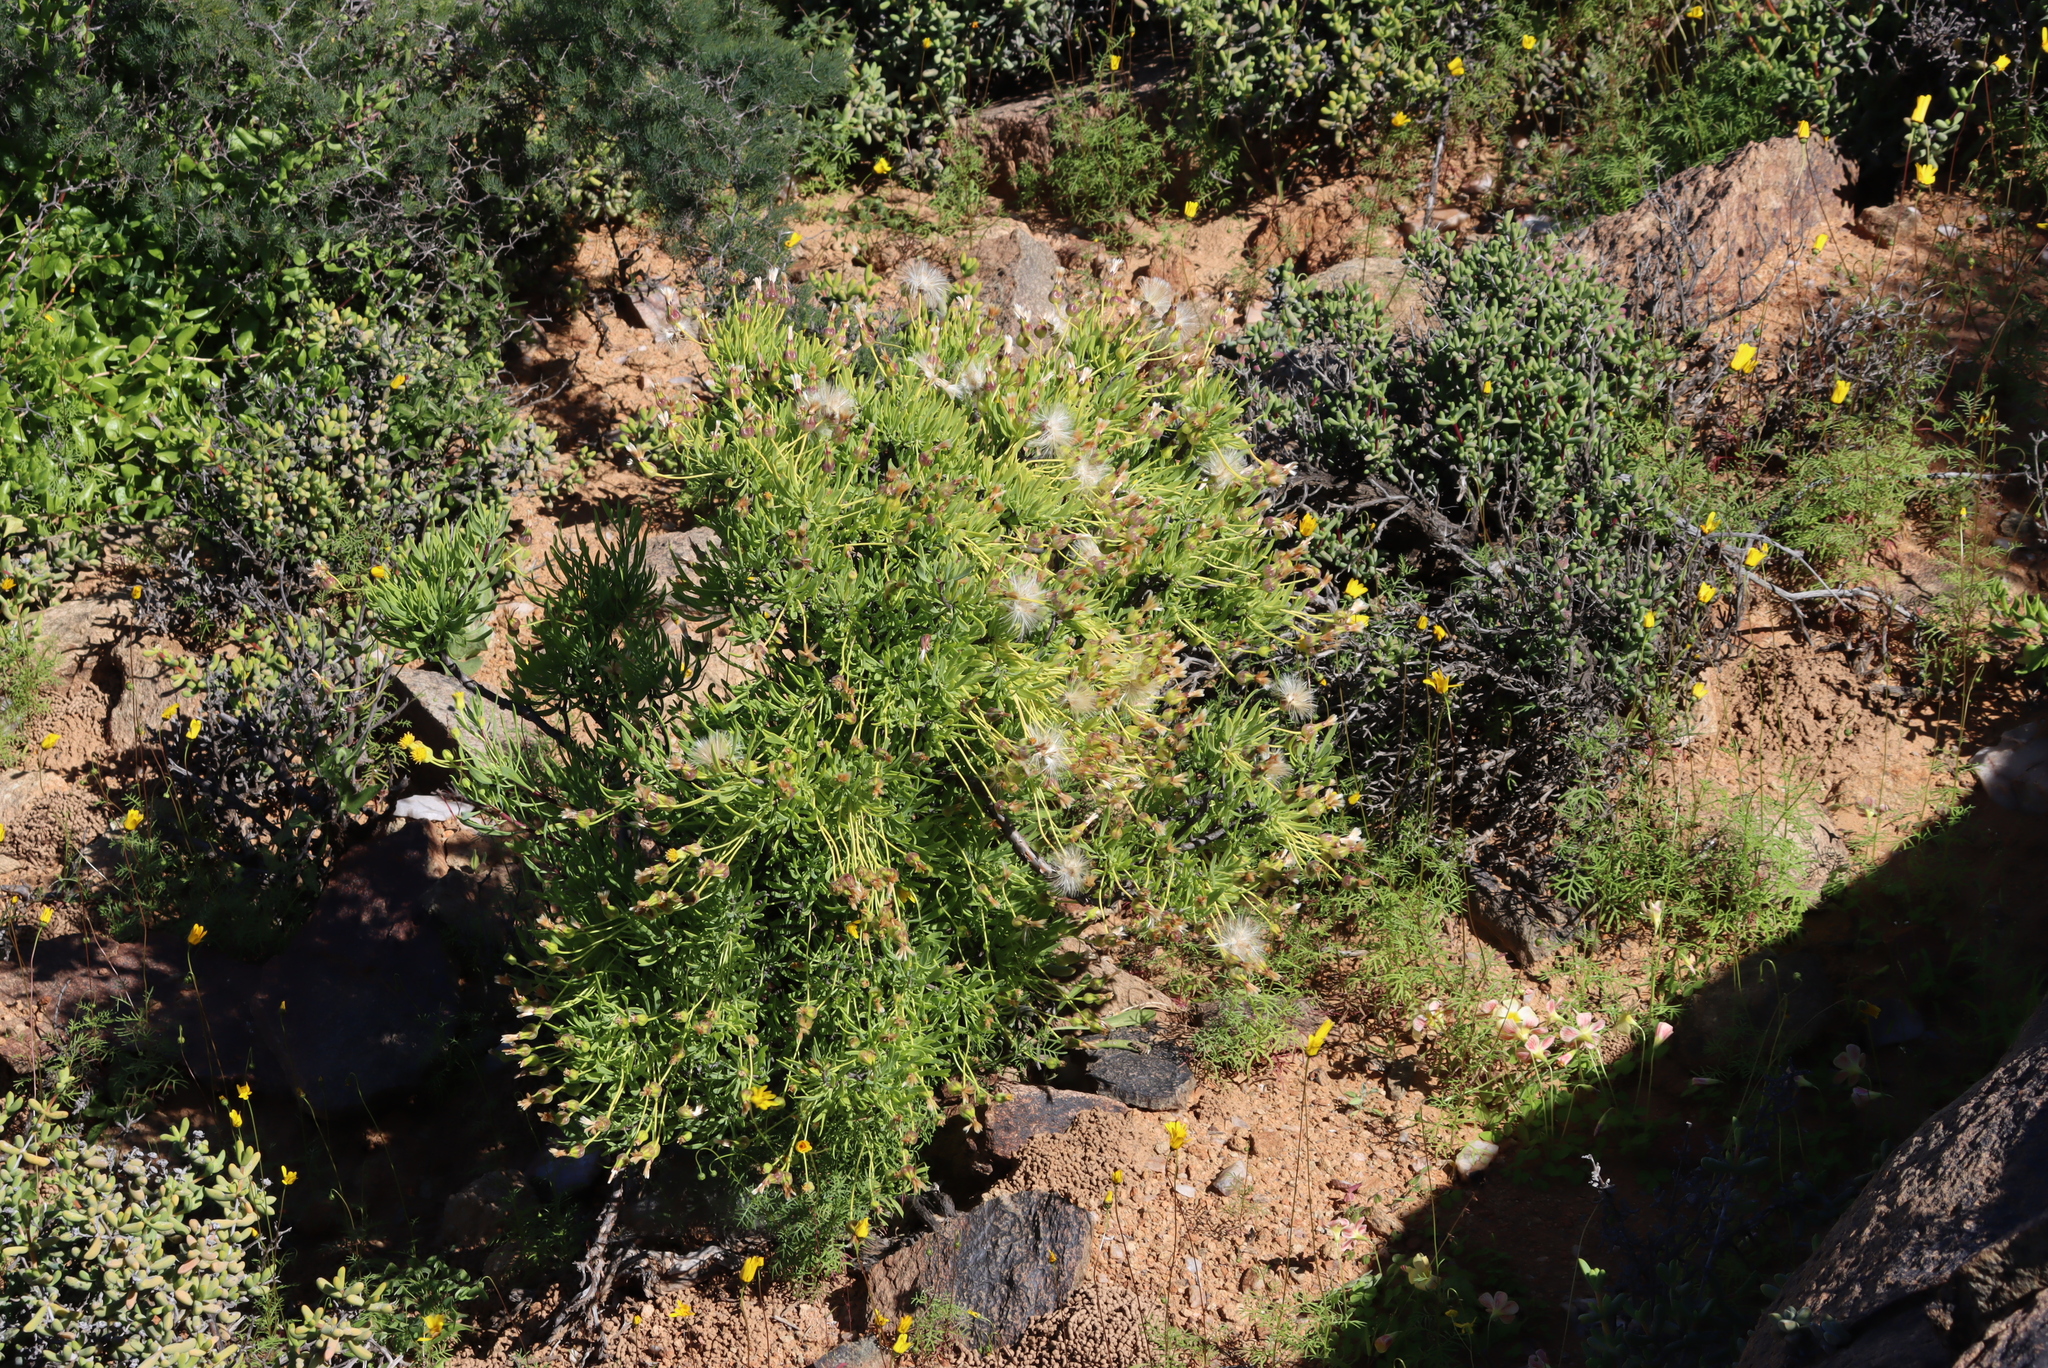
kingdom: Plantae
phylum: Tracheophyta
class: Magnoliopsida
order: Asterales
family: Asteraceae
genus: Othonna
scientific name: Othonna lasiocarpa
